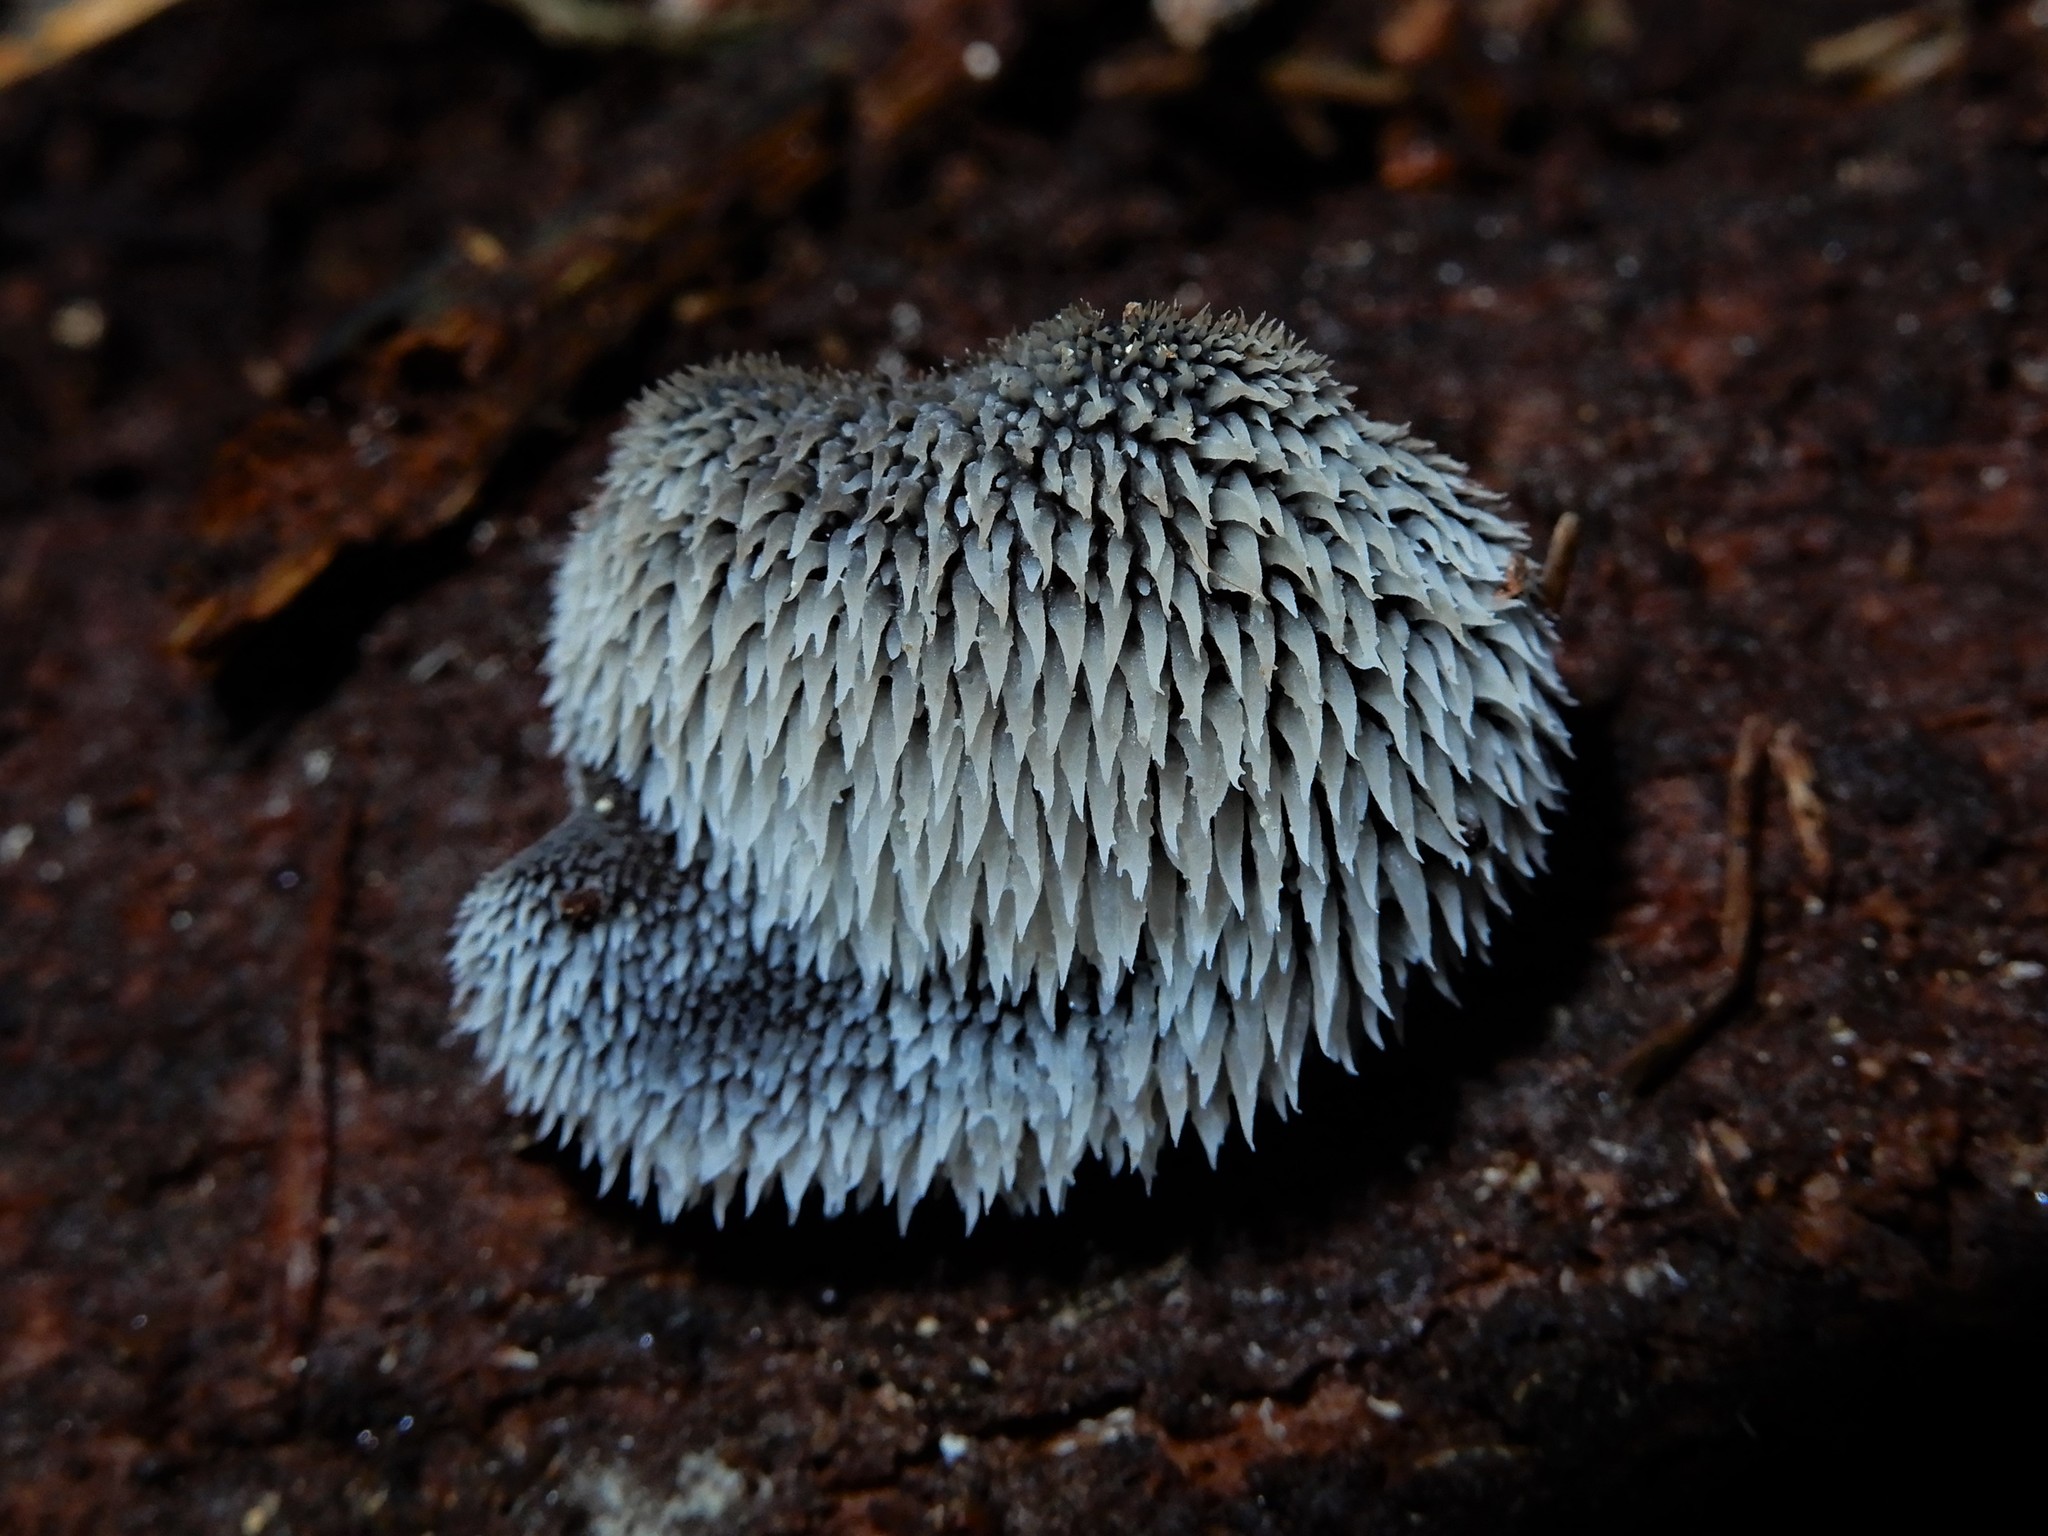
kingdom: Fungi
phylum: Basidiomycota
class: Agaricomycetes
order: Auriculariales
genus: Pseudohydnum
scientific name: Pseudohydnum orbiculare
